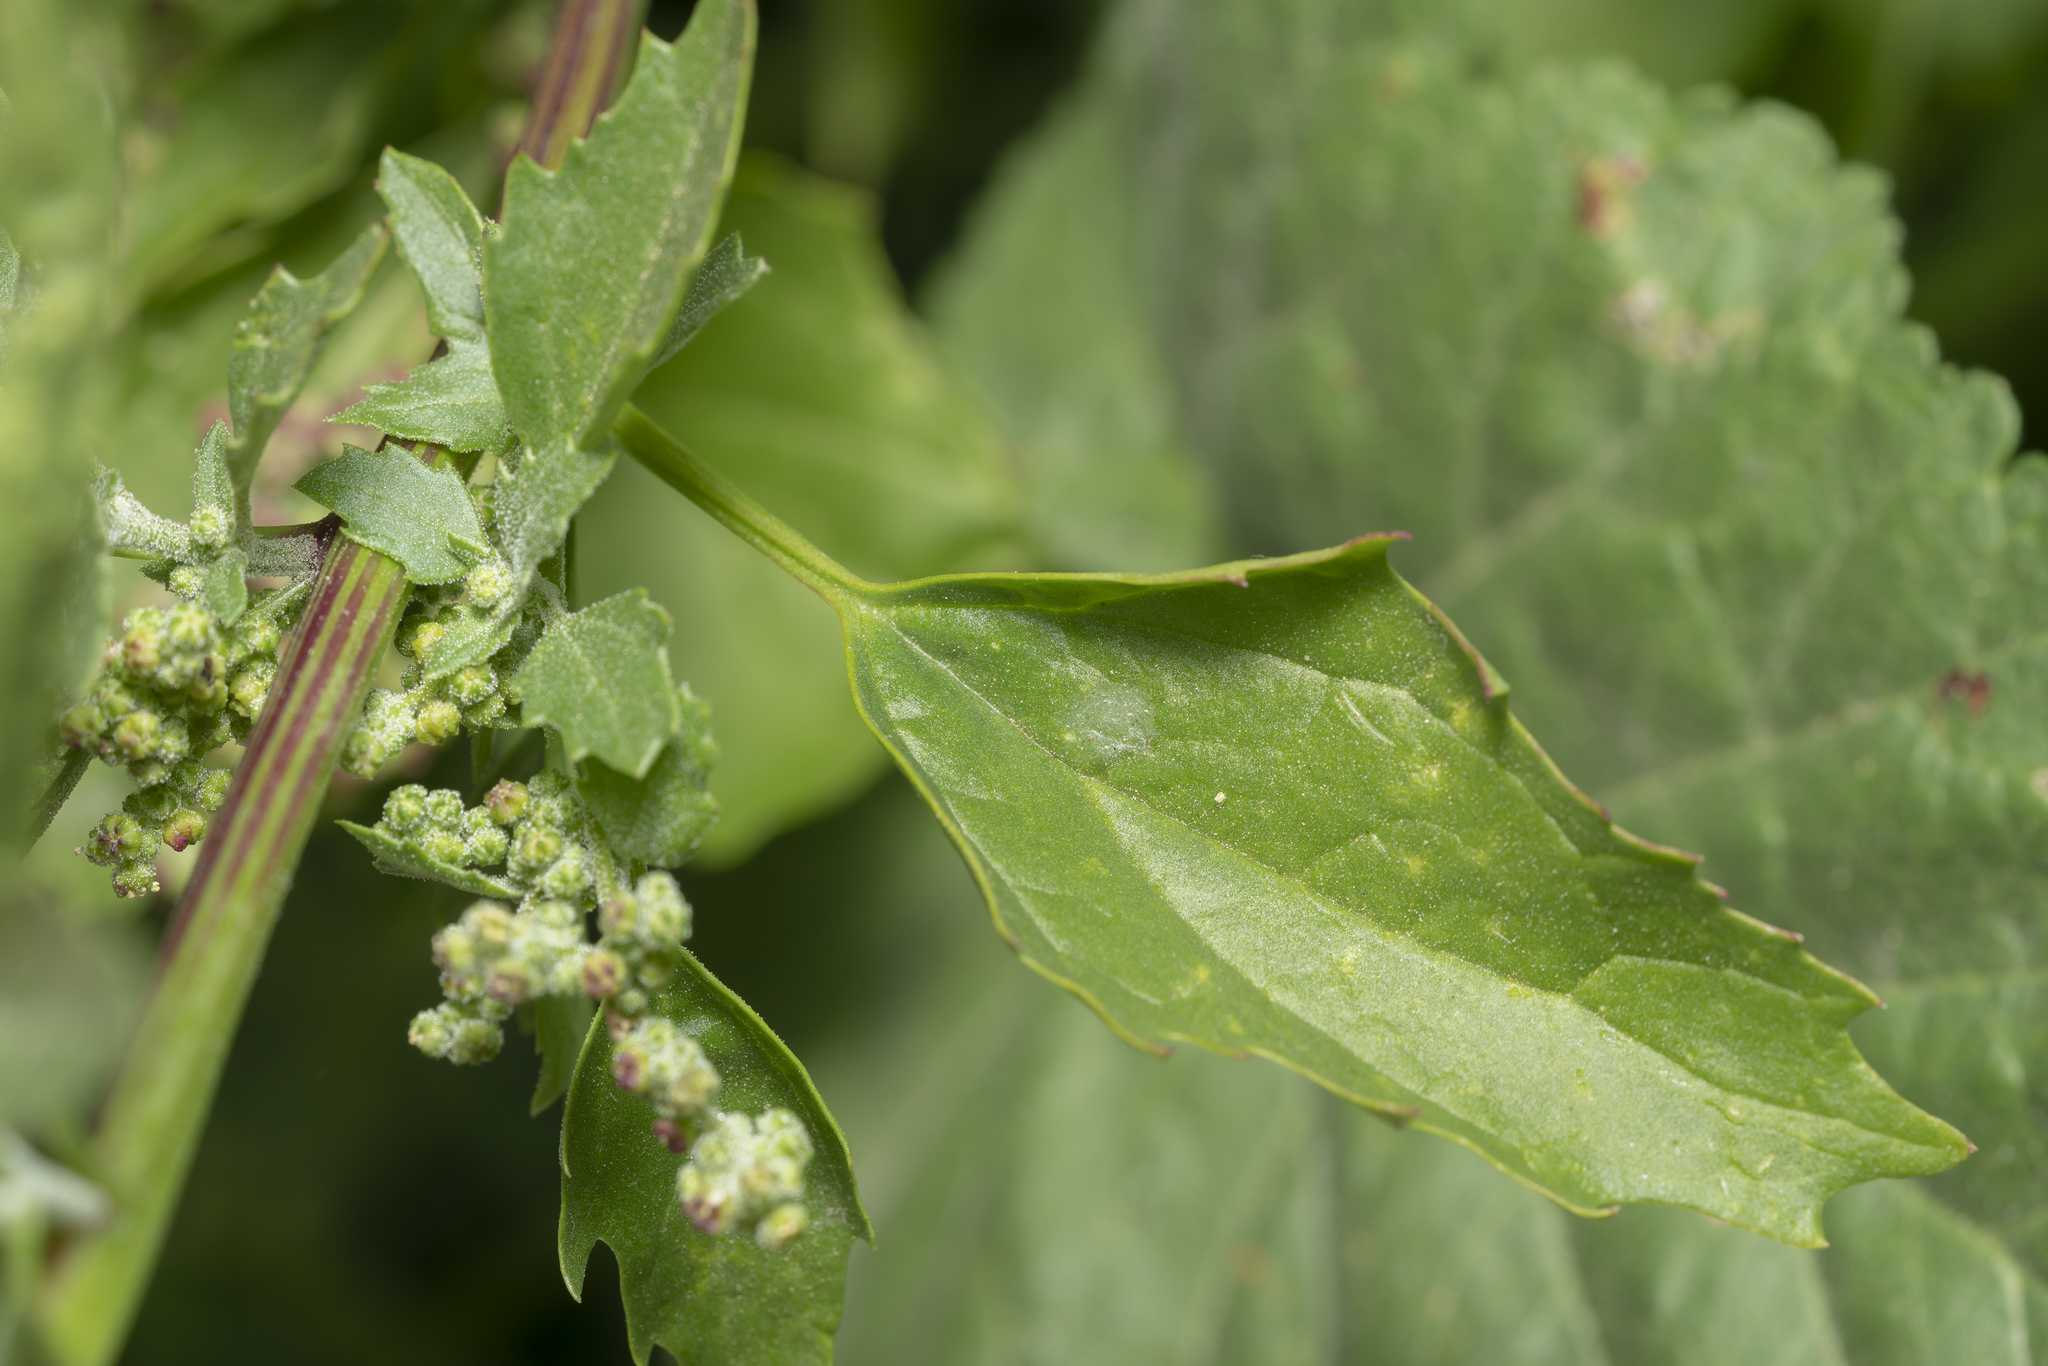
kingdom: Plantae
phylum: Tracheophyta
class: Magnoliopsida
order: Caryophyllales
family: Amaranthaceae
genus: Chenopodiastrum
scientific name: Chenopodiastrum murale
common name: Sowbane
